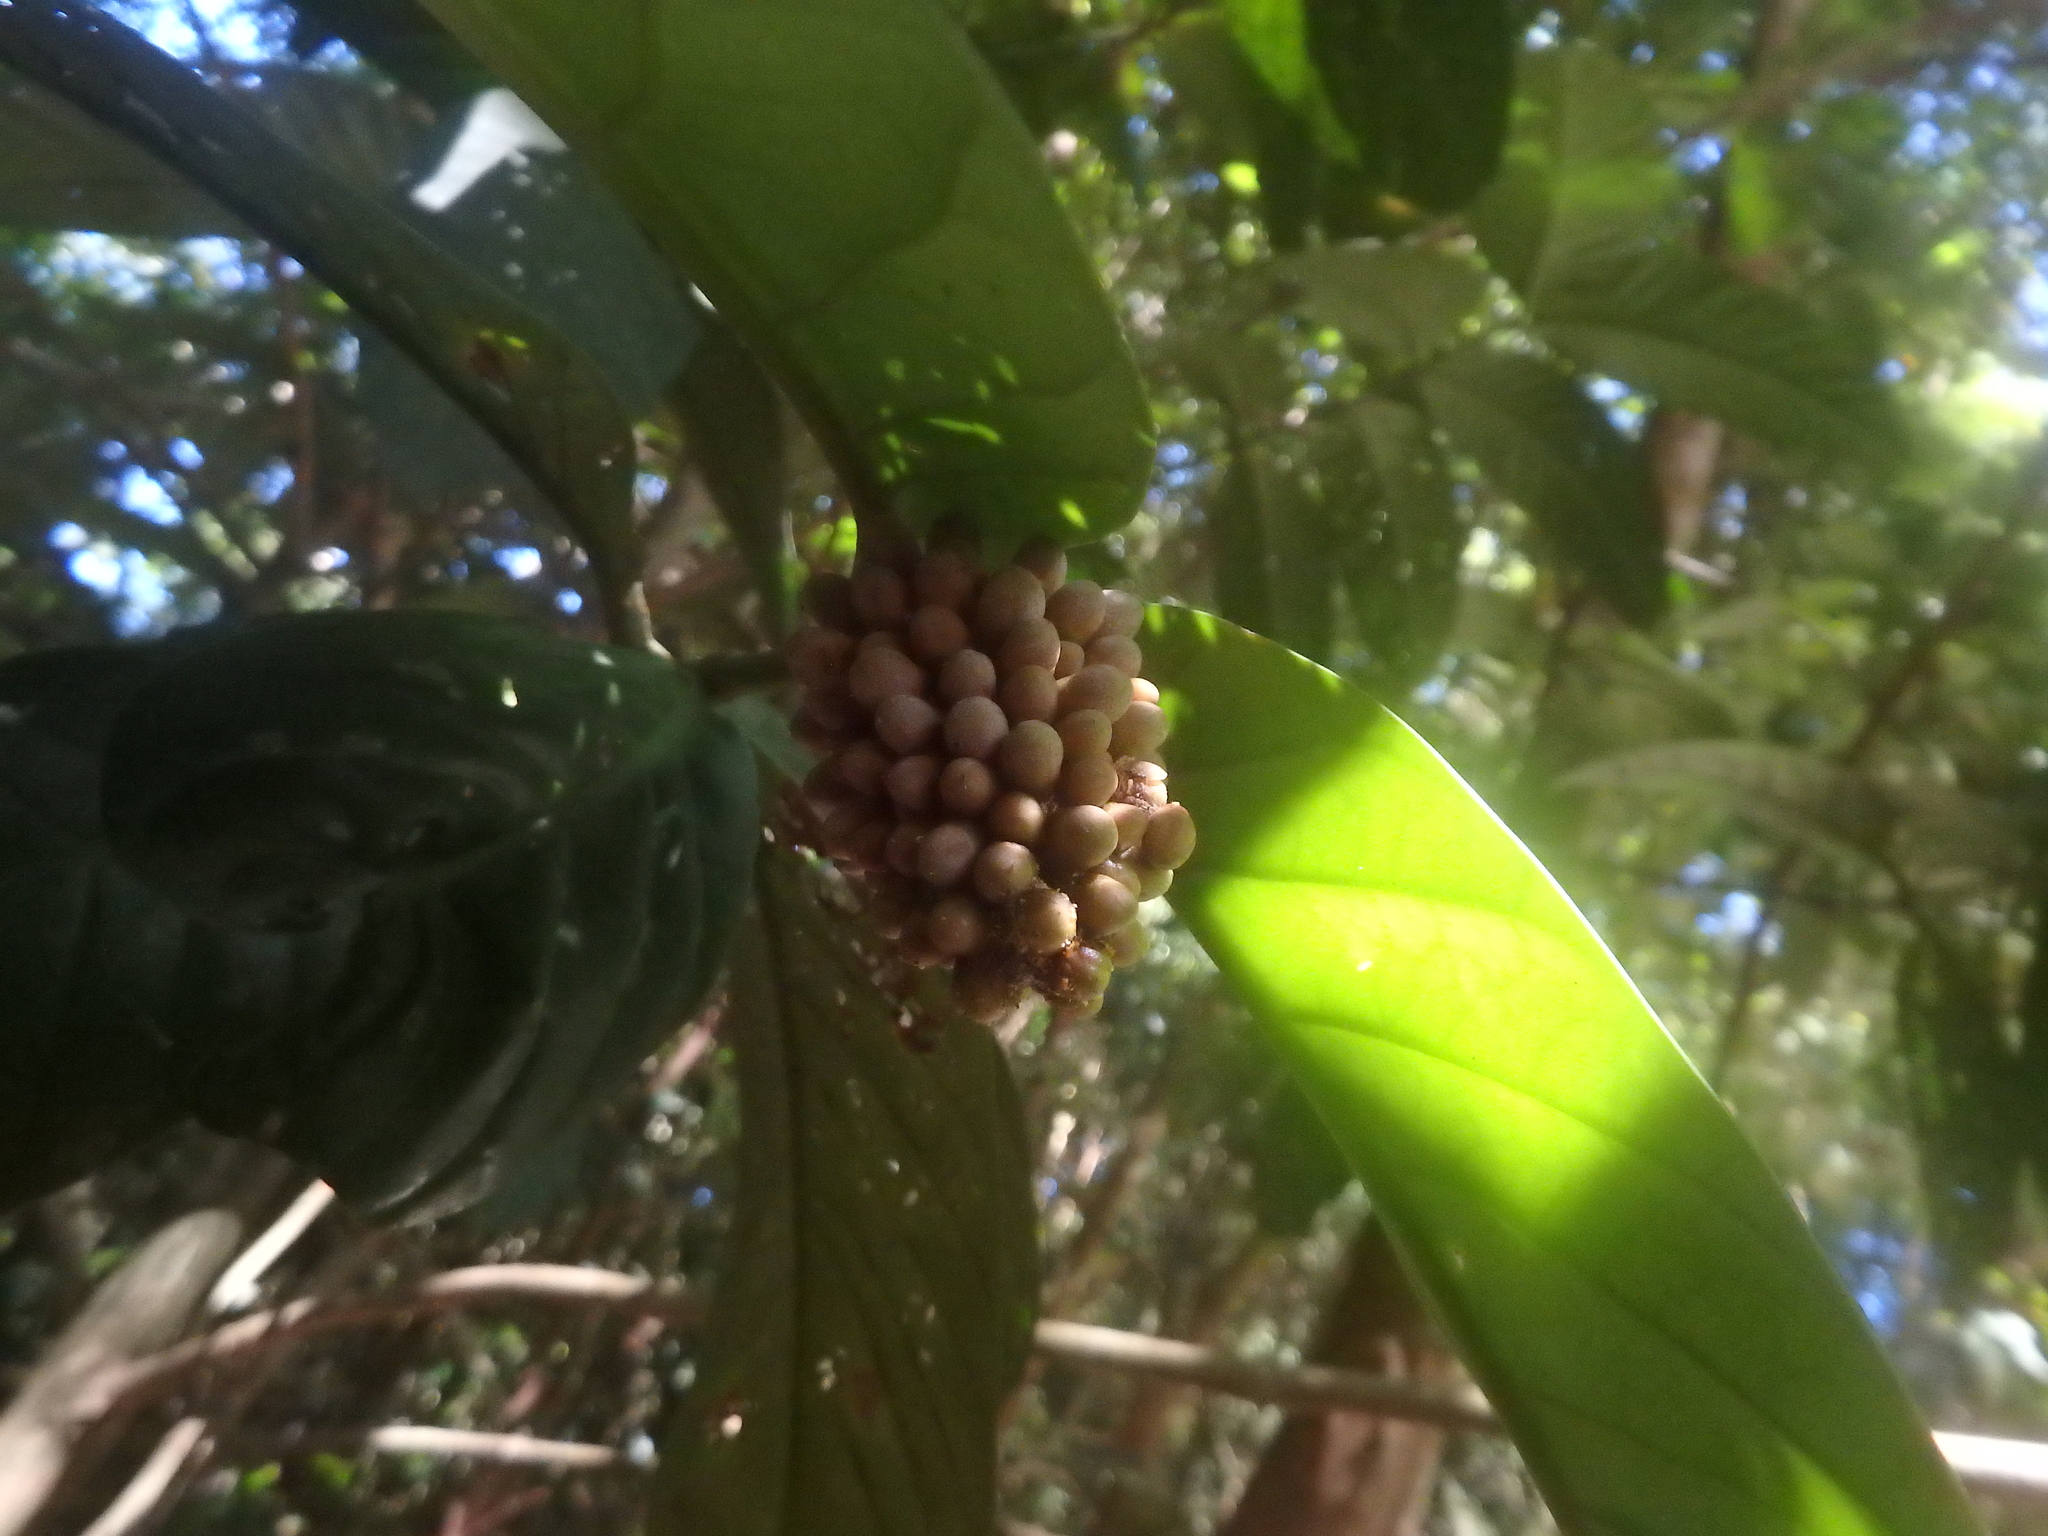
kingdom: Plantae
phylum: Tracheophyta
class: Magnoliopsida
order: Gentianales
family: Gentianaceae
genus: Utania
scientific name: Utania nervosa
